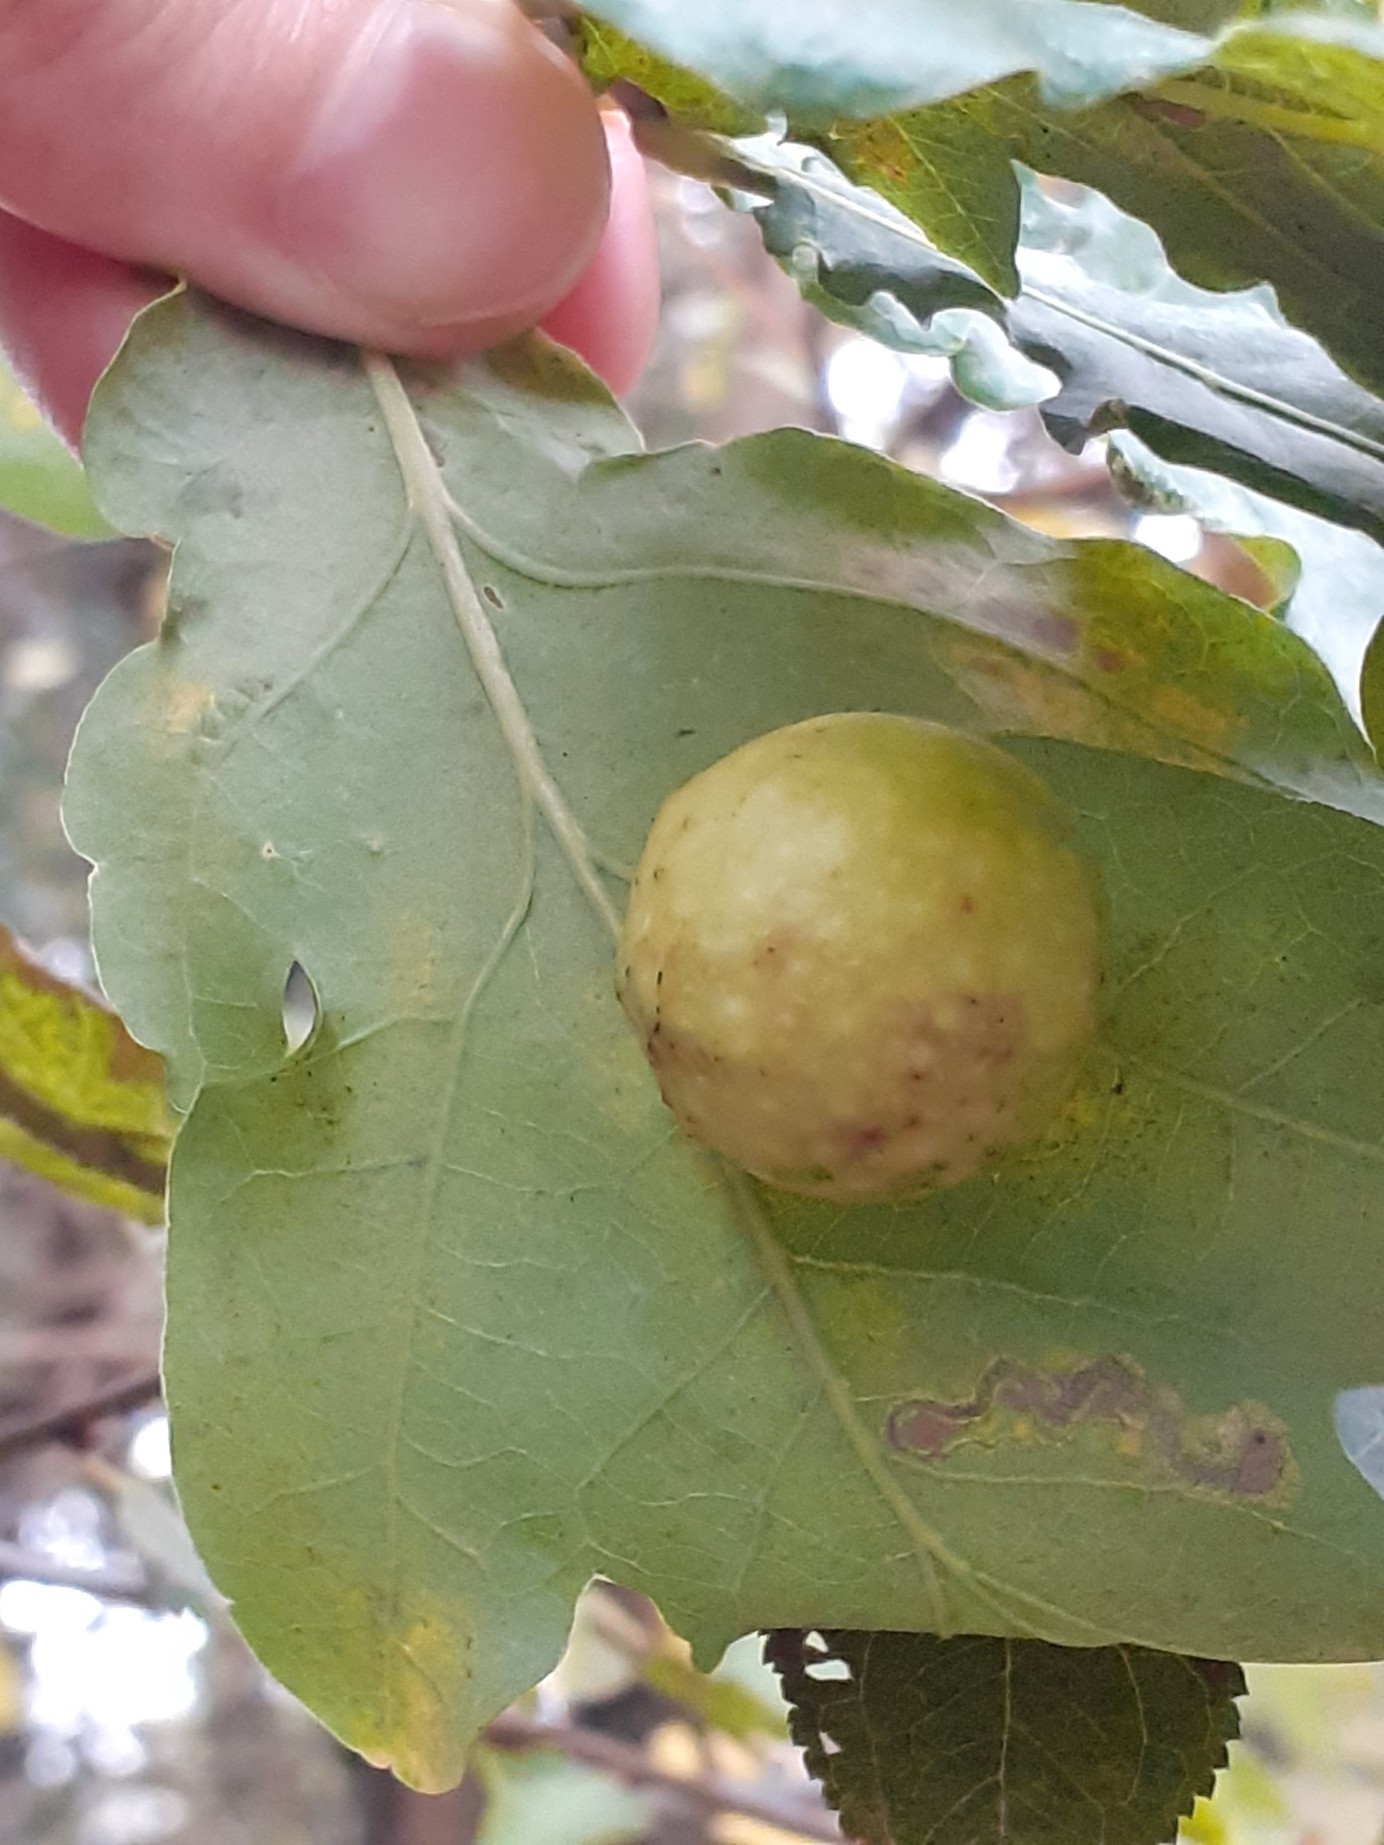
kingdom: Animalia
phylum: Arthropoda
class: Insecta
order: Hymenoptera
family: Cynipidae
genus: Cynips
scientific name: Cynips quercusfolii
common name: Cherry gall
